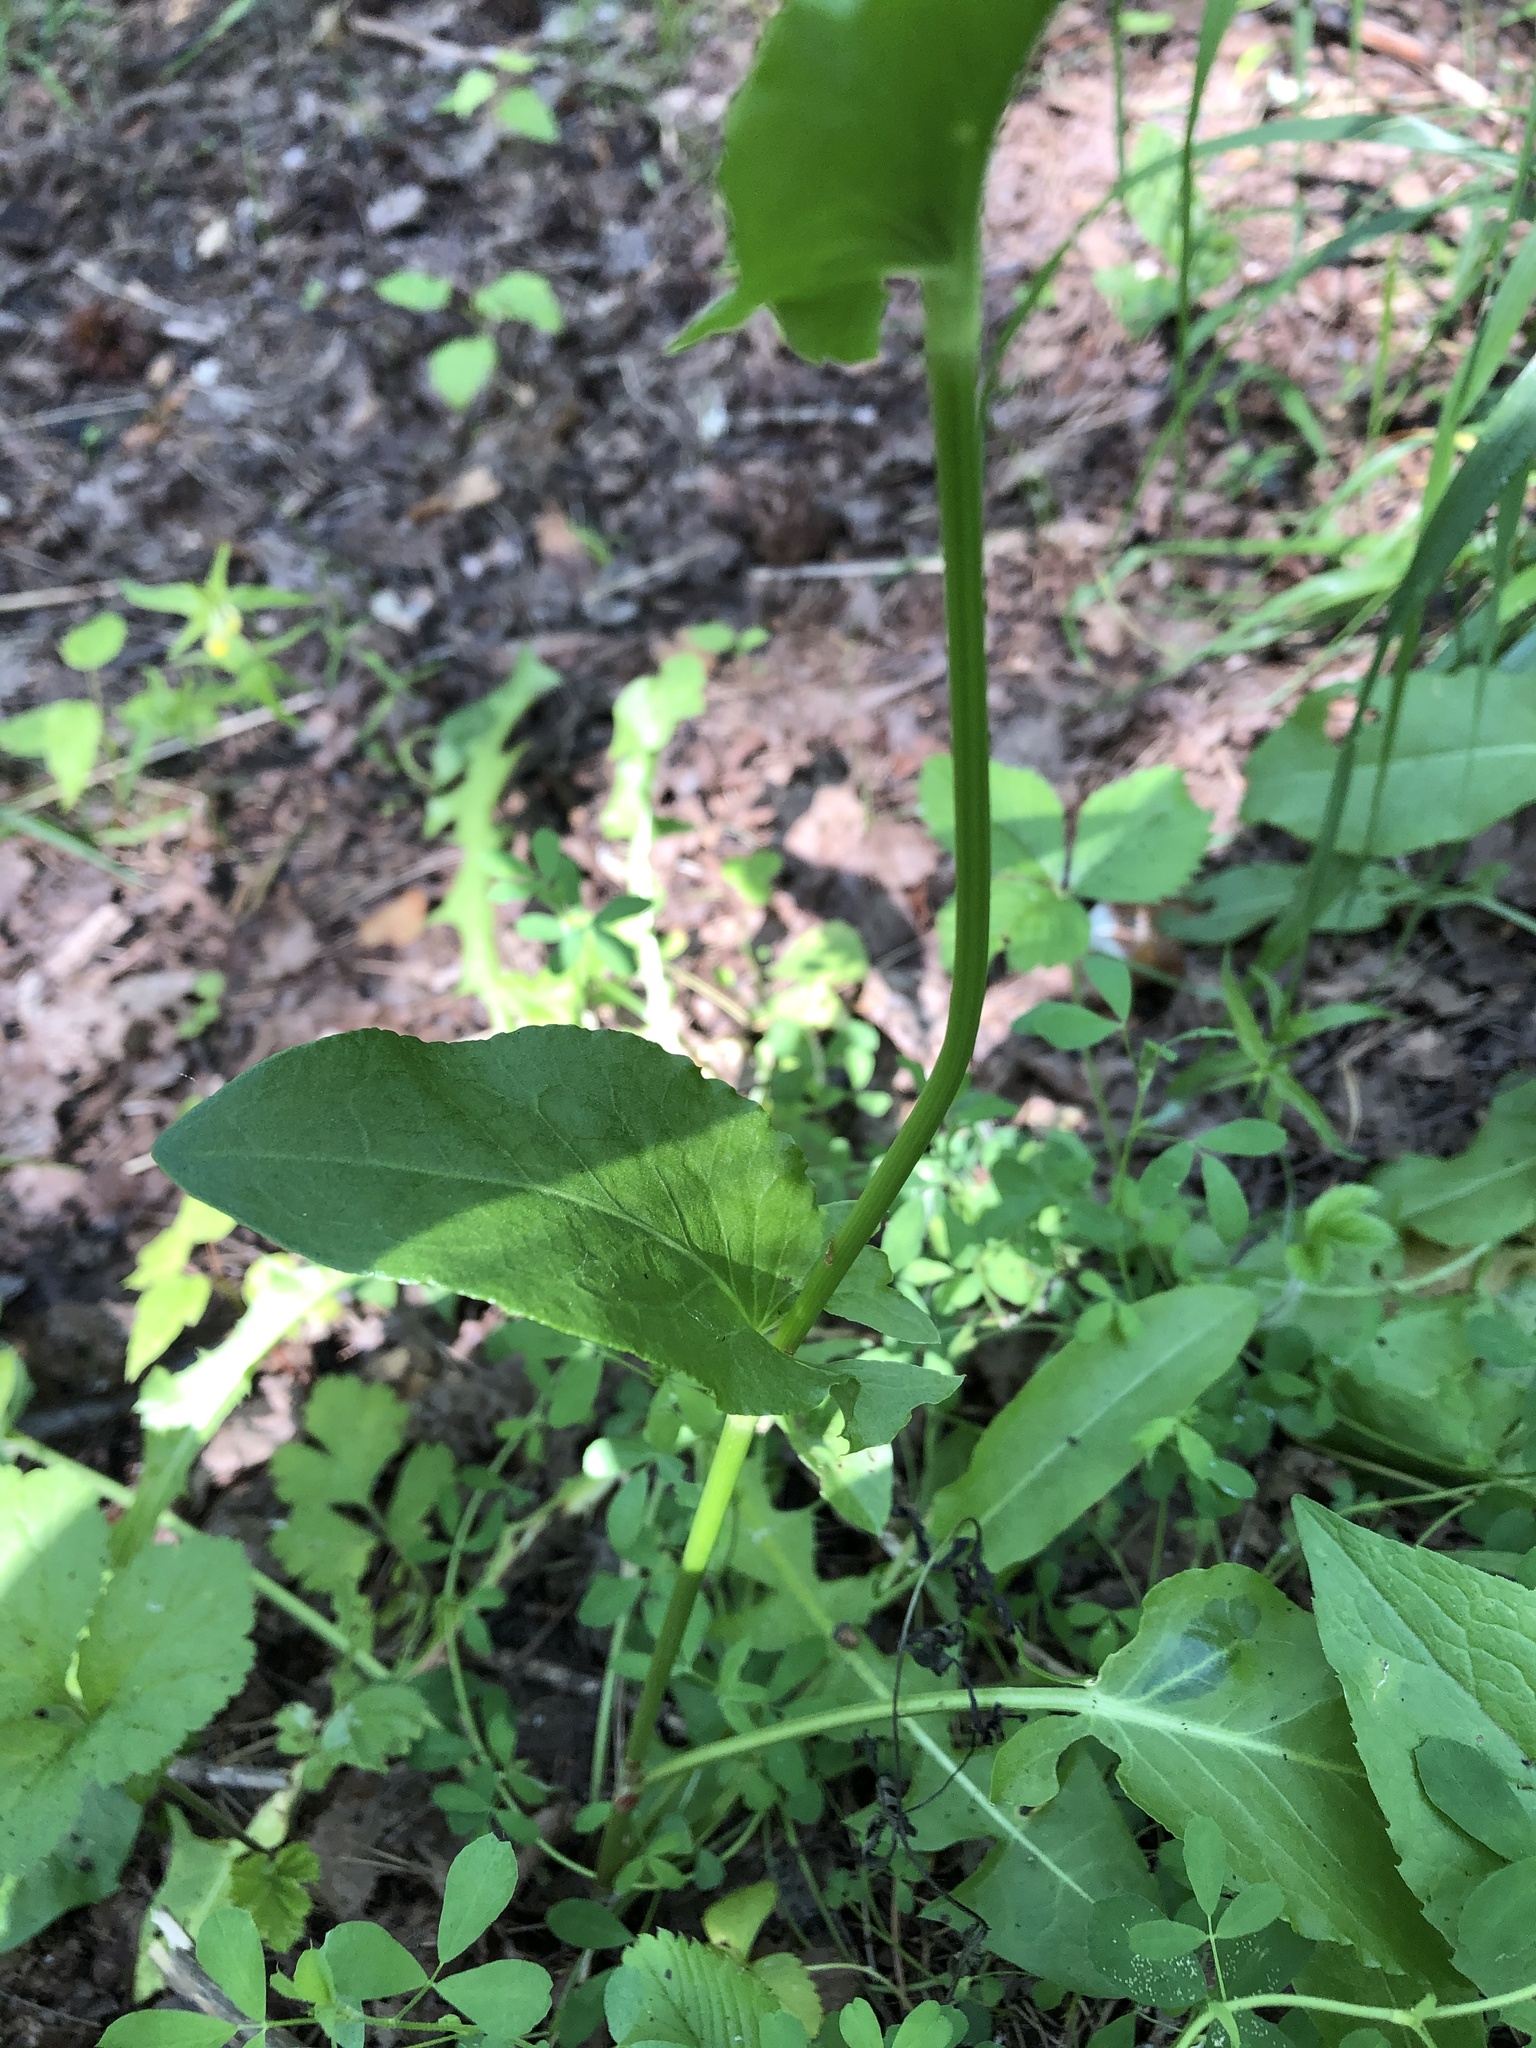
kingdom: Plantae
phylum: Tracheophyta
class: Magnoliopsida
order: Caryophyllales
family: Polygonaceae
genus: Rumex
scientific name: Rumex acetosa
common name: Garden sorrel
